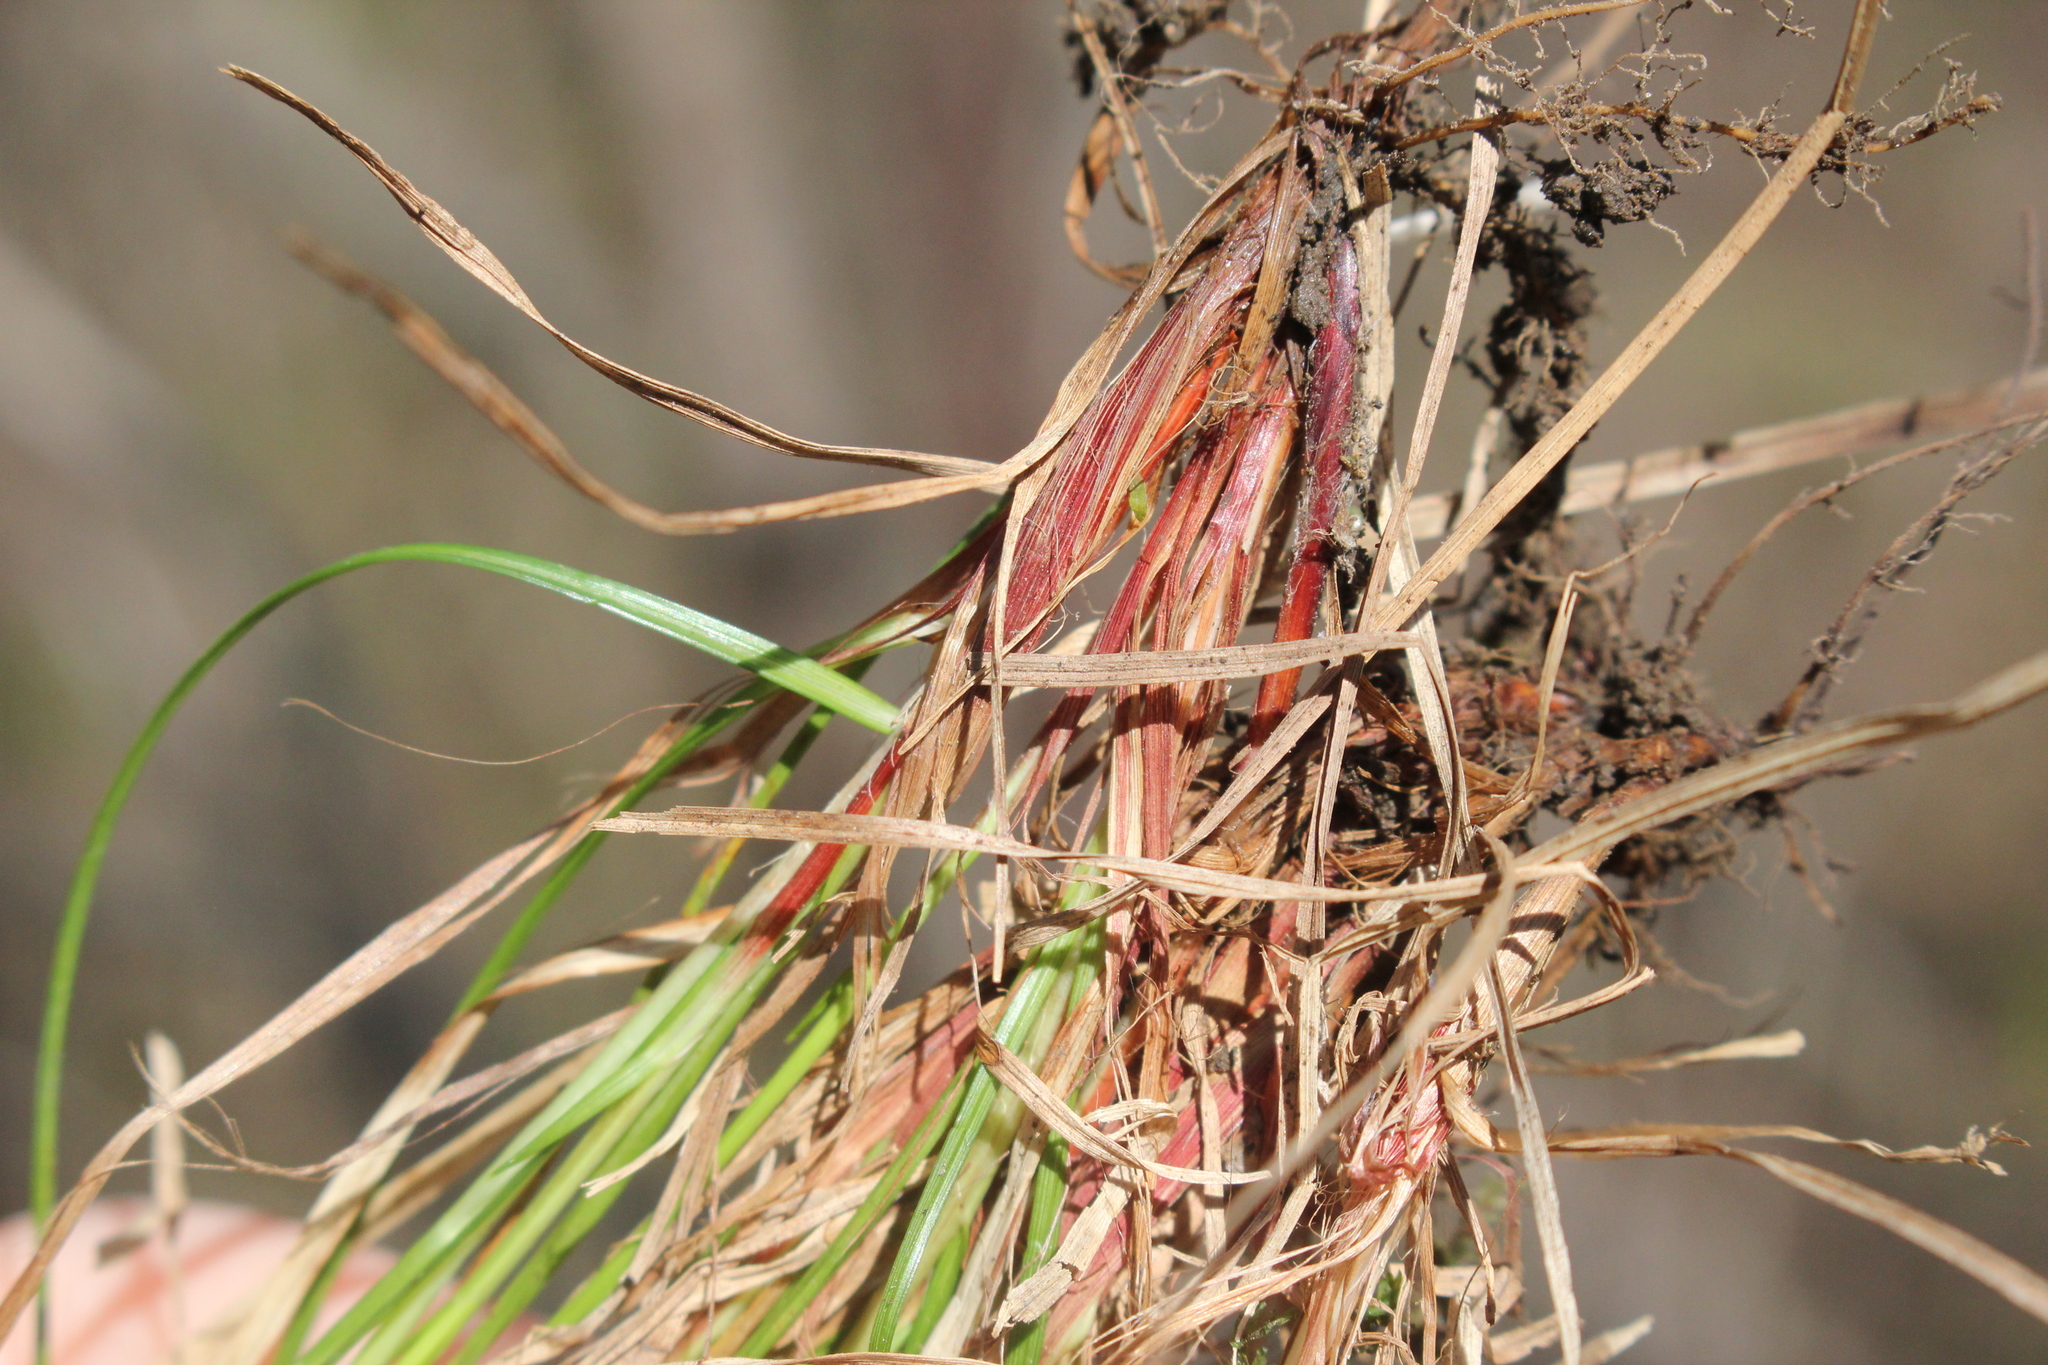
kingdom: Plantae
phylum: Tracheophyta
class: Liliopsida
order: Poales
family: Cyperaceae
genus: Carex
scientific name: Carex pensylvanica
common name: Common oak sedge
